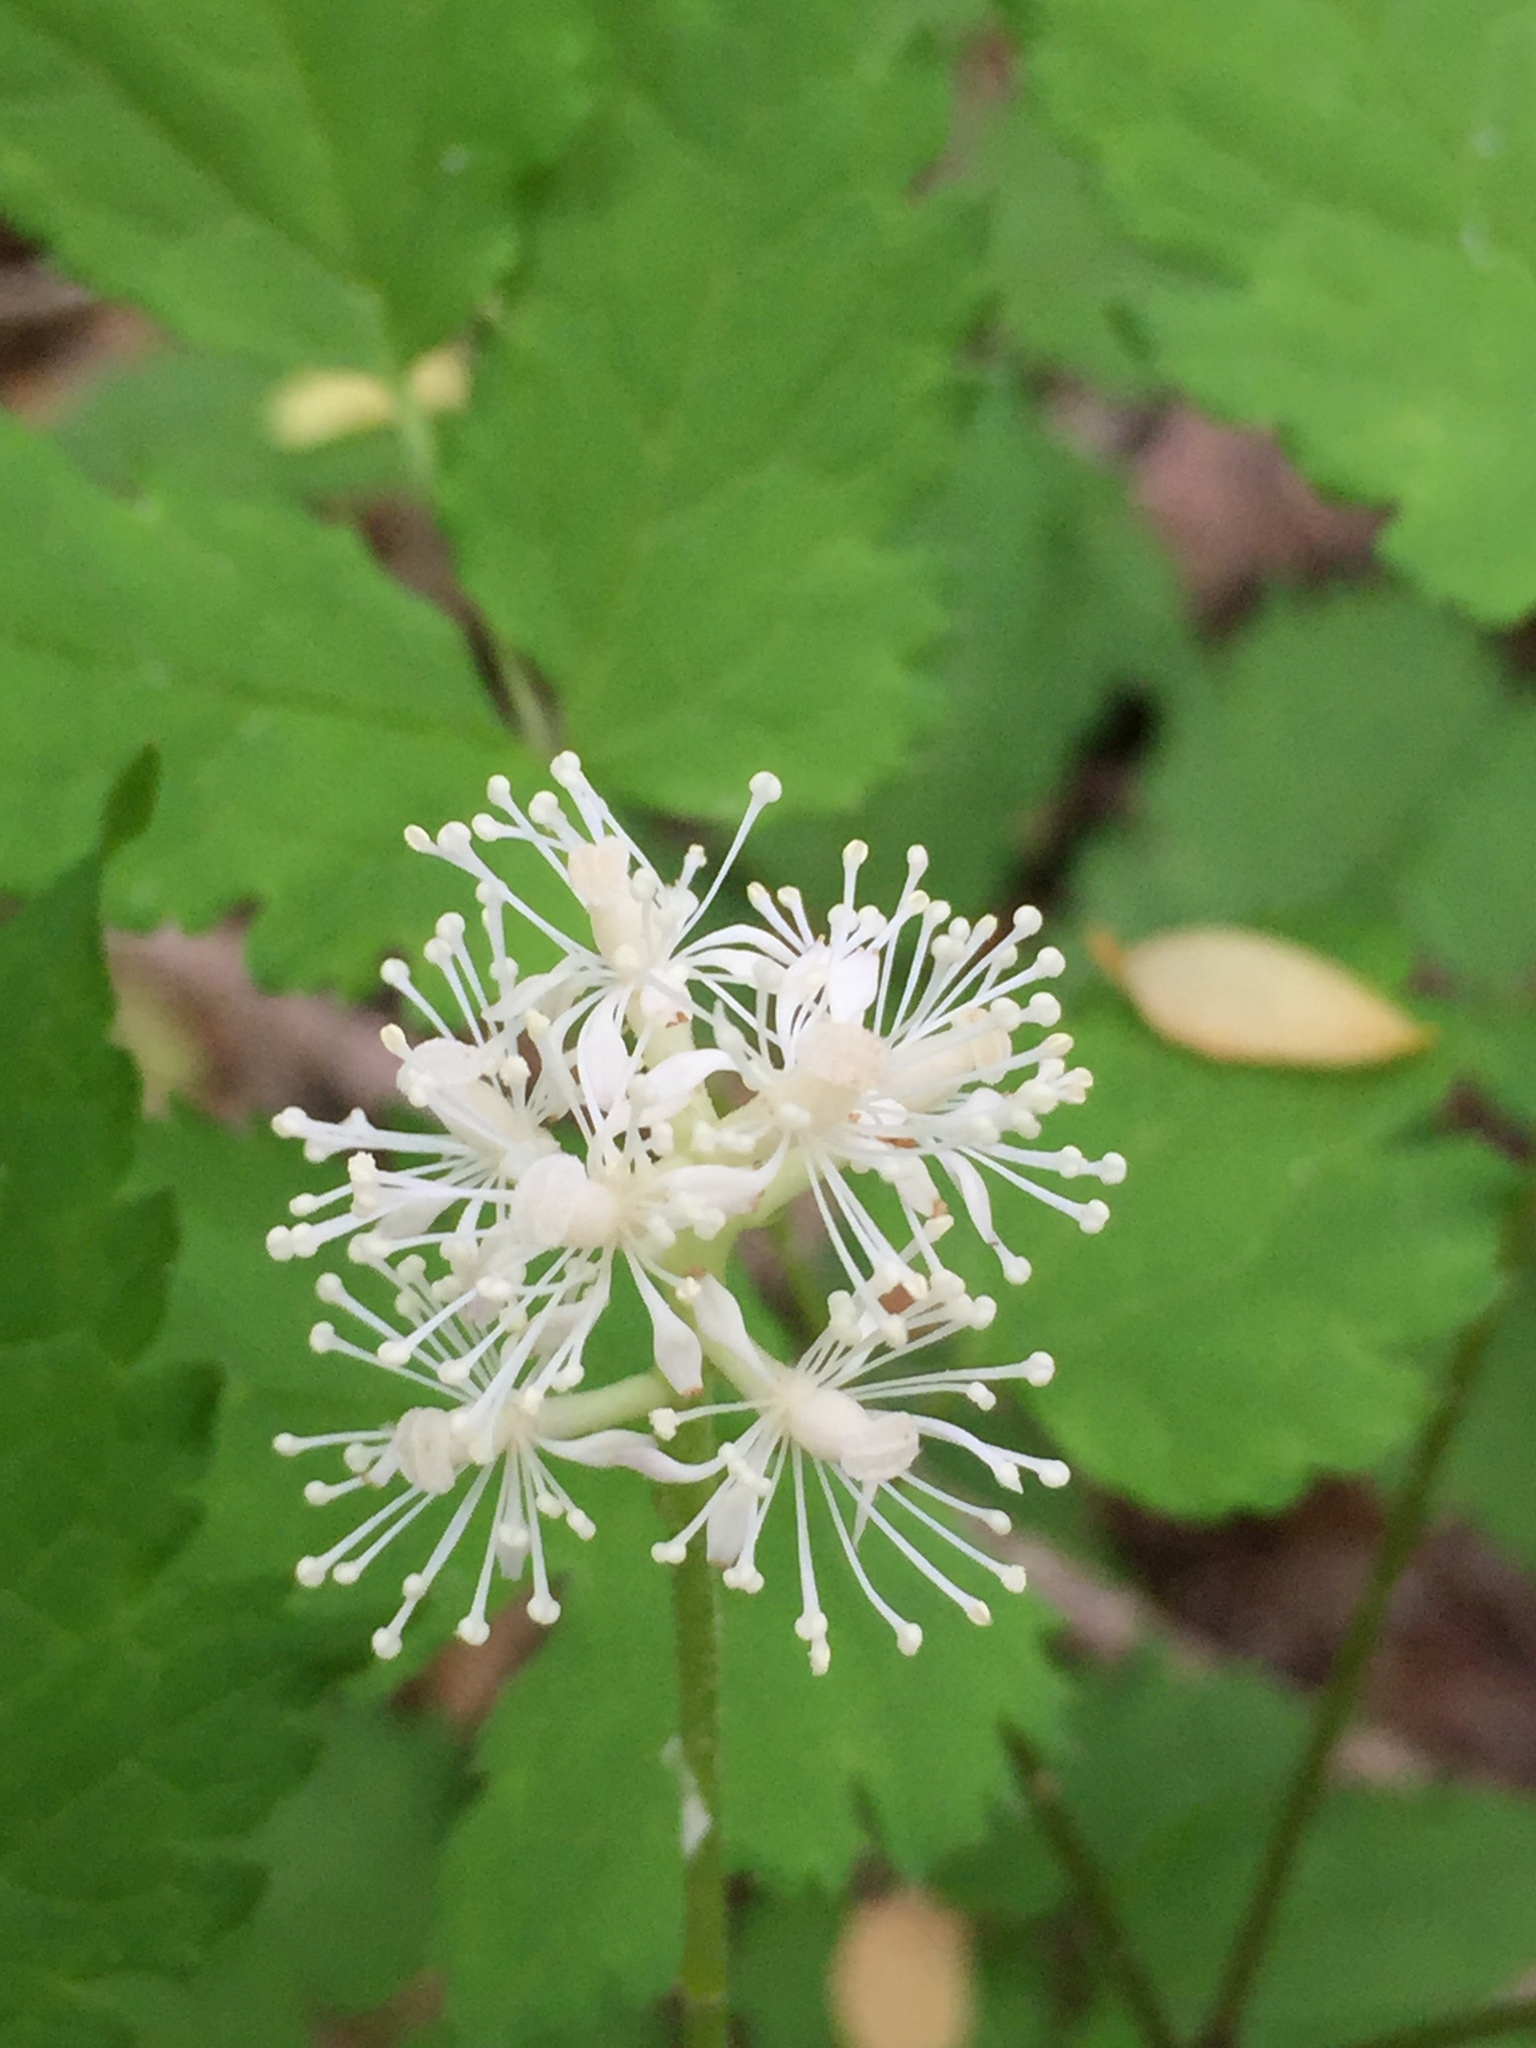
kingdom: Plantae
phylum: Tracheophyta
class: Magnoliopsida
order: Ranunculales
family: Ranunculaceae
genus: Actaea
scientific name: Actaea pachypoda
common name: Doll's-eyes
